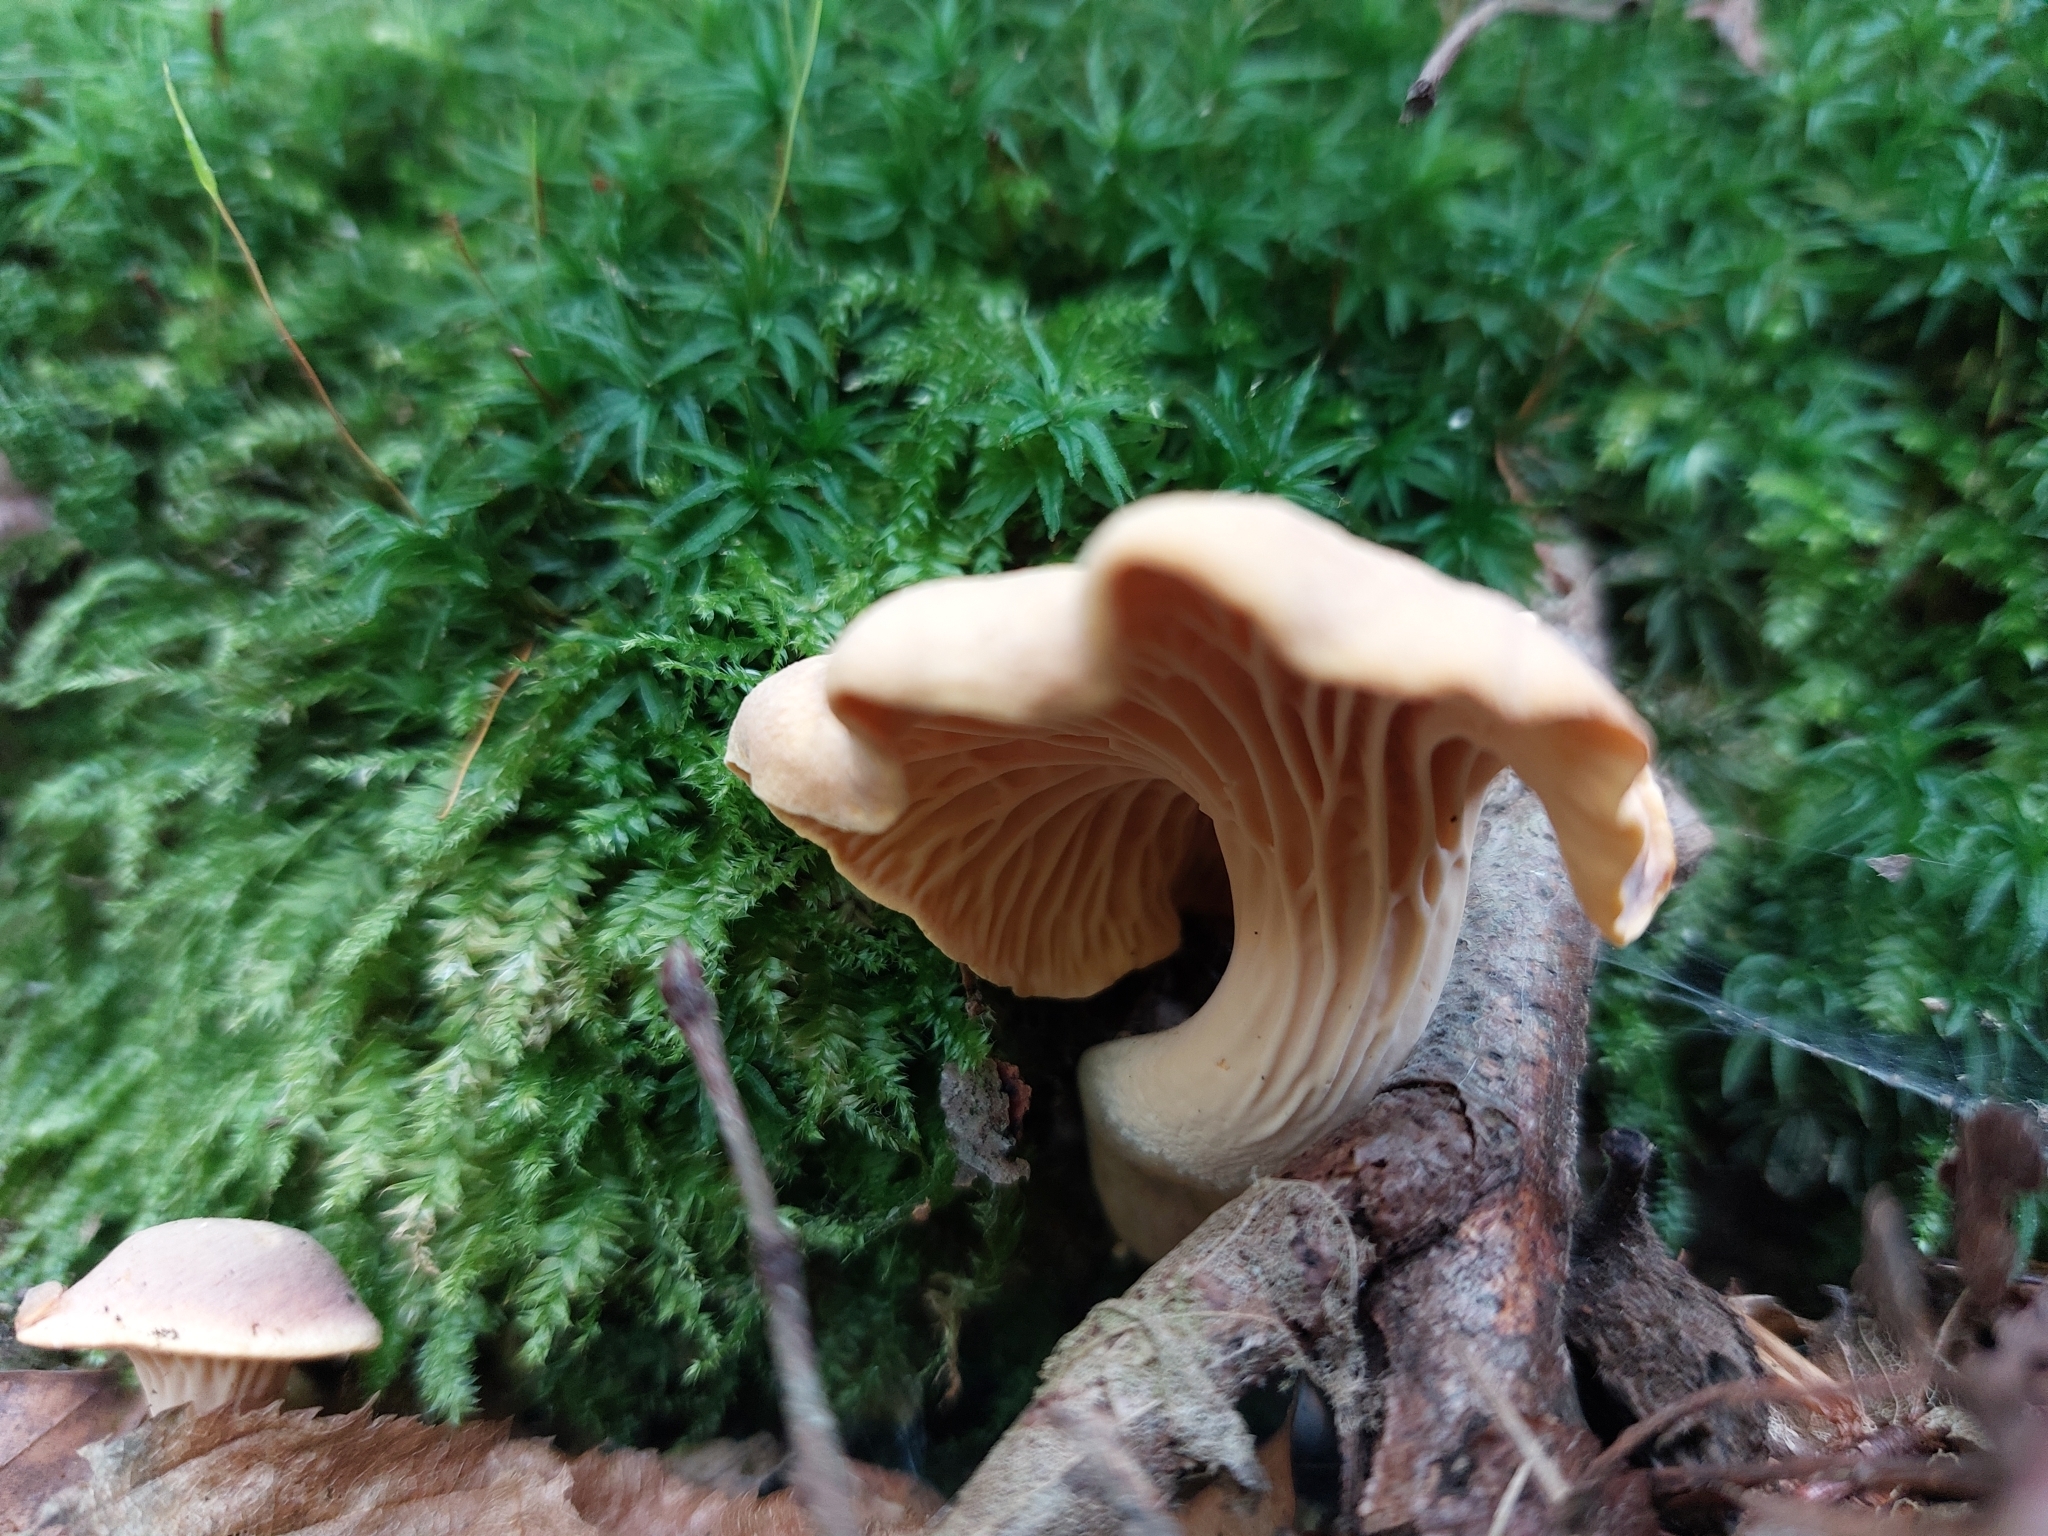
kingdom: Fungi
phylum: Basidiomycota
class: Agaricomycetes
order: Cantharellales
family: Hydnaceae
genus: Cantharellus
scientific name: Cantharellus amethysteus
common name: Amethyst chanterelle
